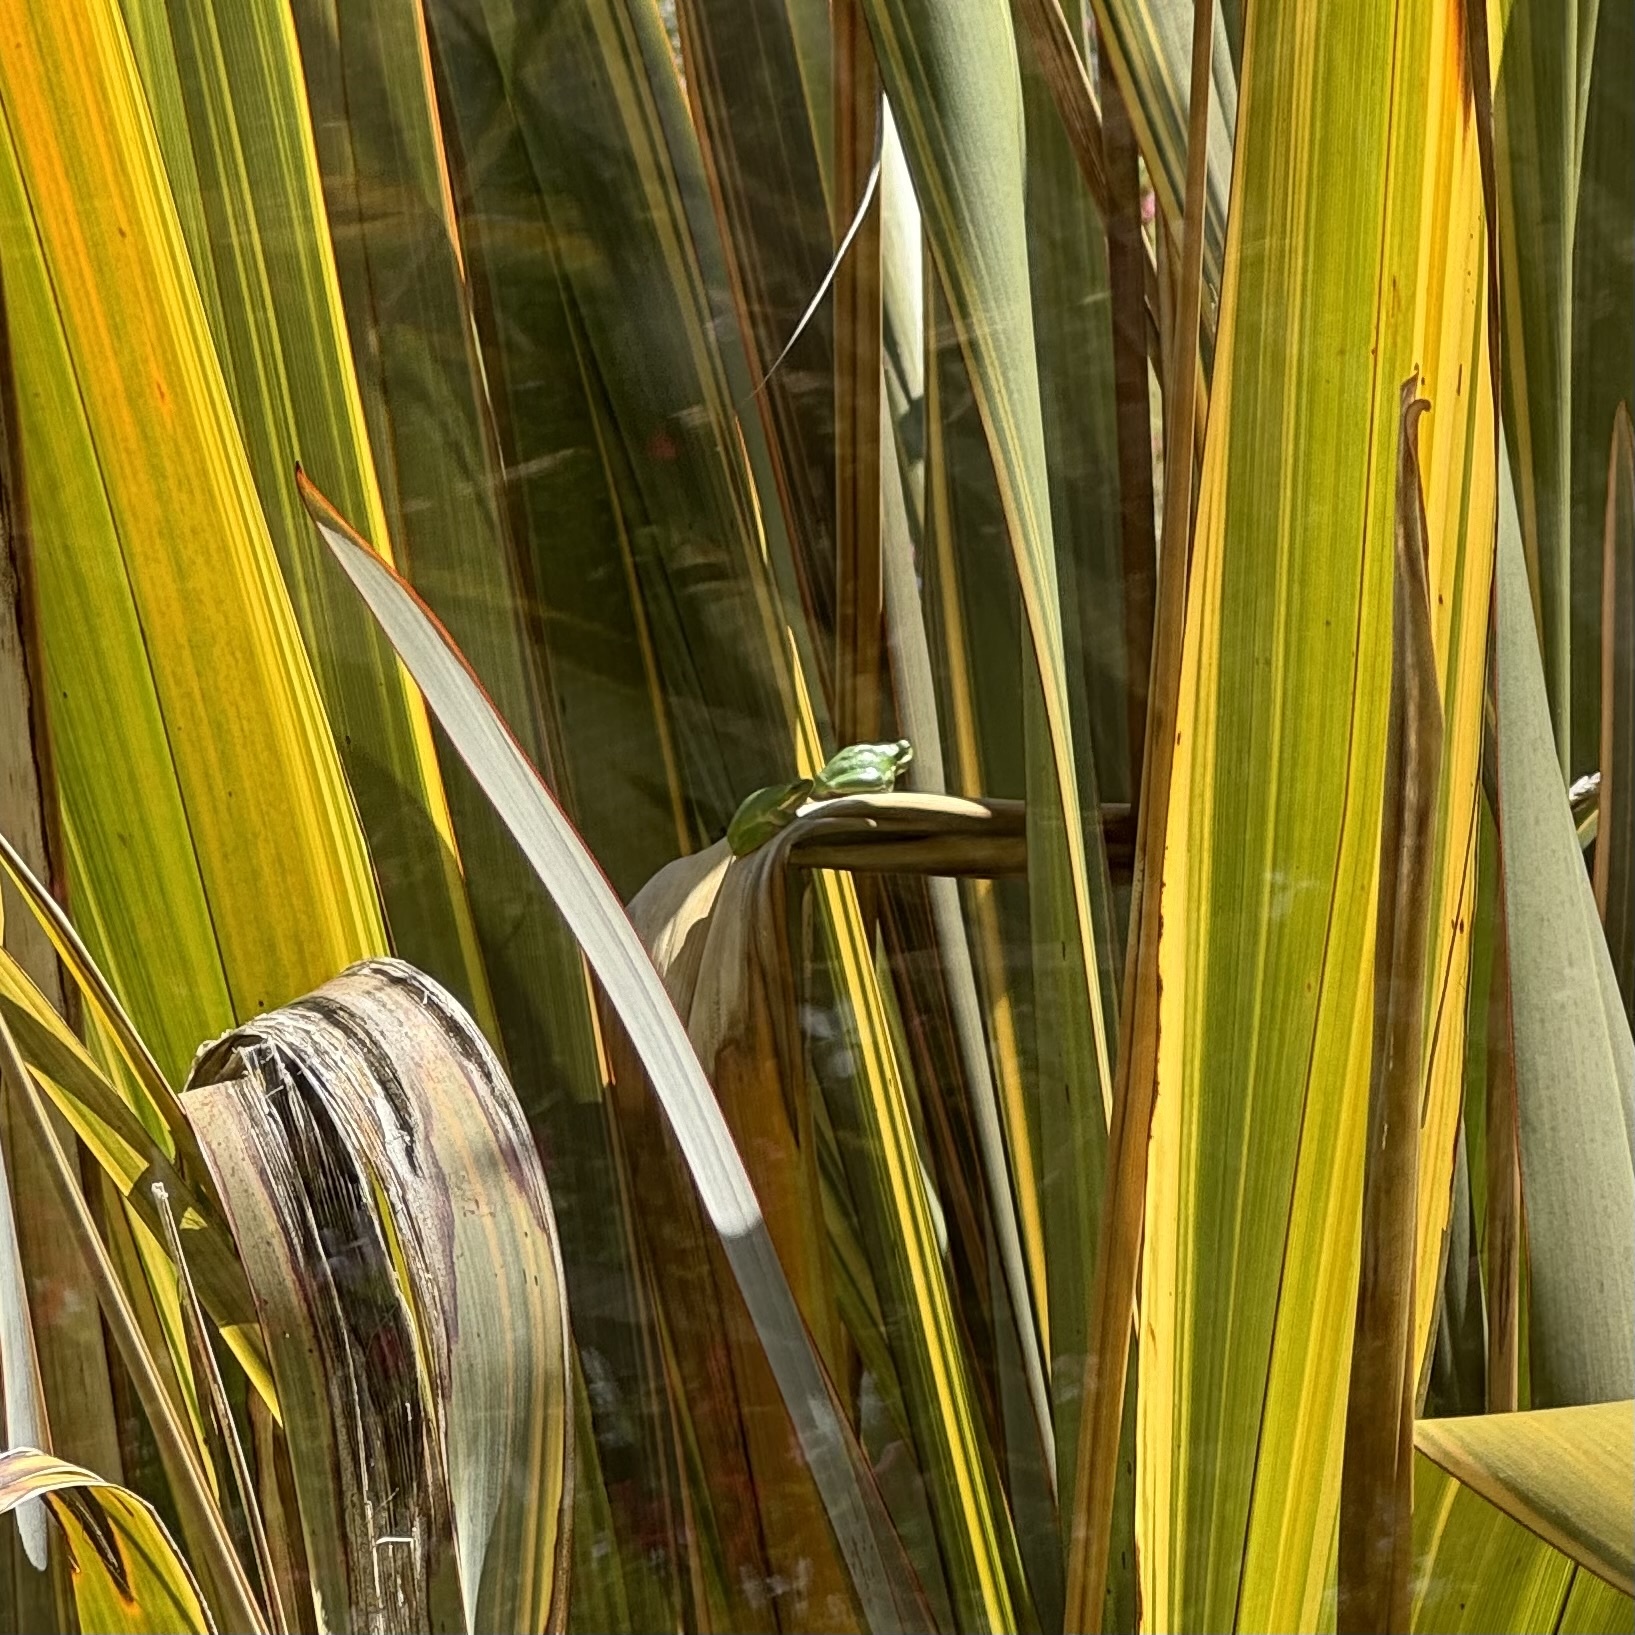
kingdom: Animalia
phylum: Chordata
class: Amphibia
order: Anura
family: Pelodryadidae
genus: Litoria
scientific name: Litoria fallax
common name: Eastern dwarf treefrog
